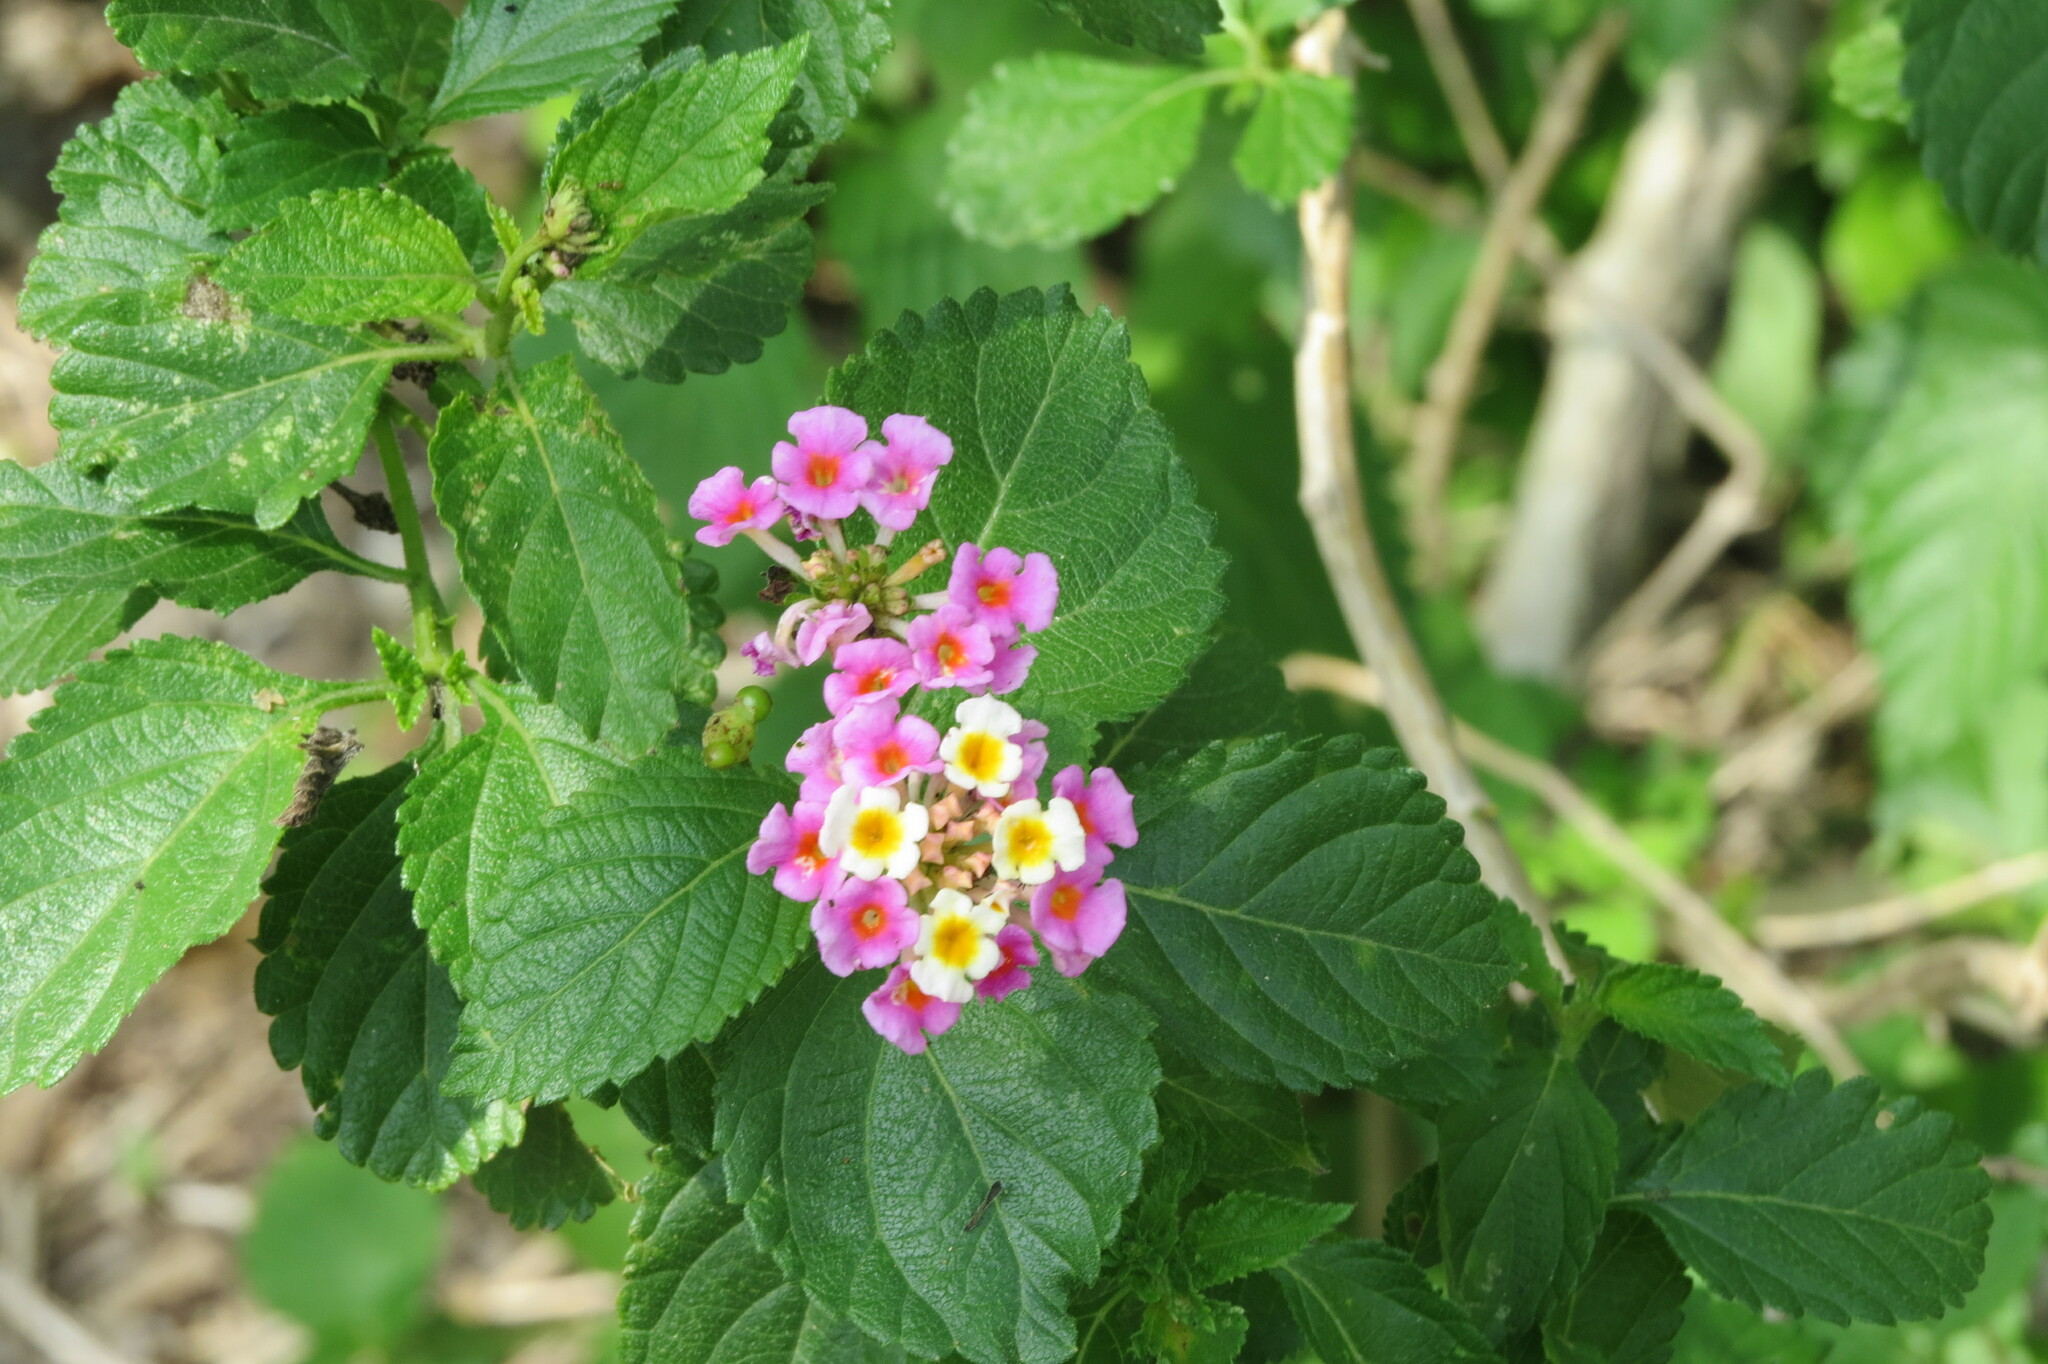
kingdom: Plantae
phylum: Tracheophyta
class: Magnoliopsida
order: Lamiales
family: Verbenaceae
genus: Lantana
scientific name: Lantana strigocamara
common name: Lantana
